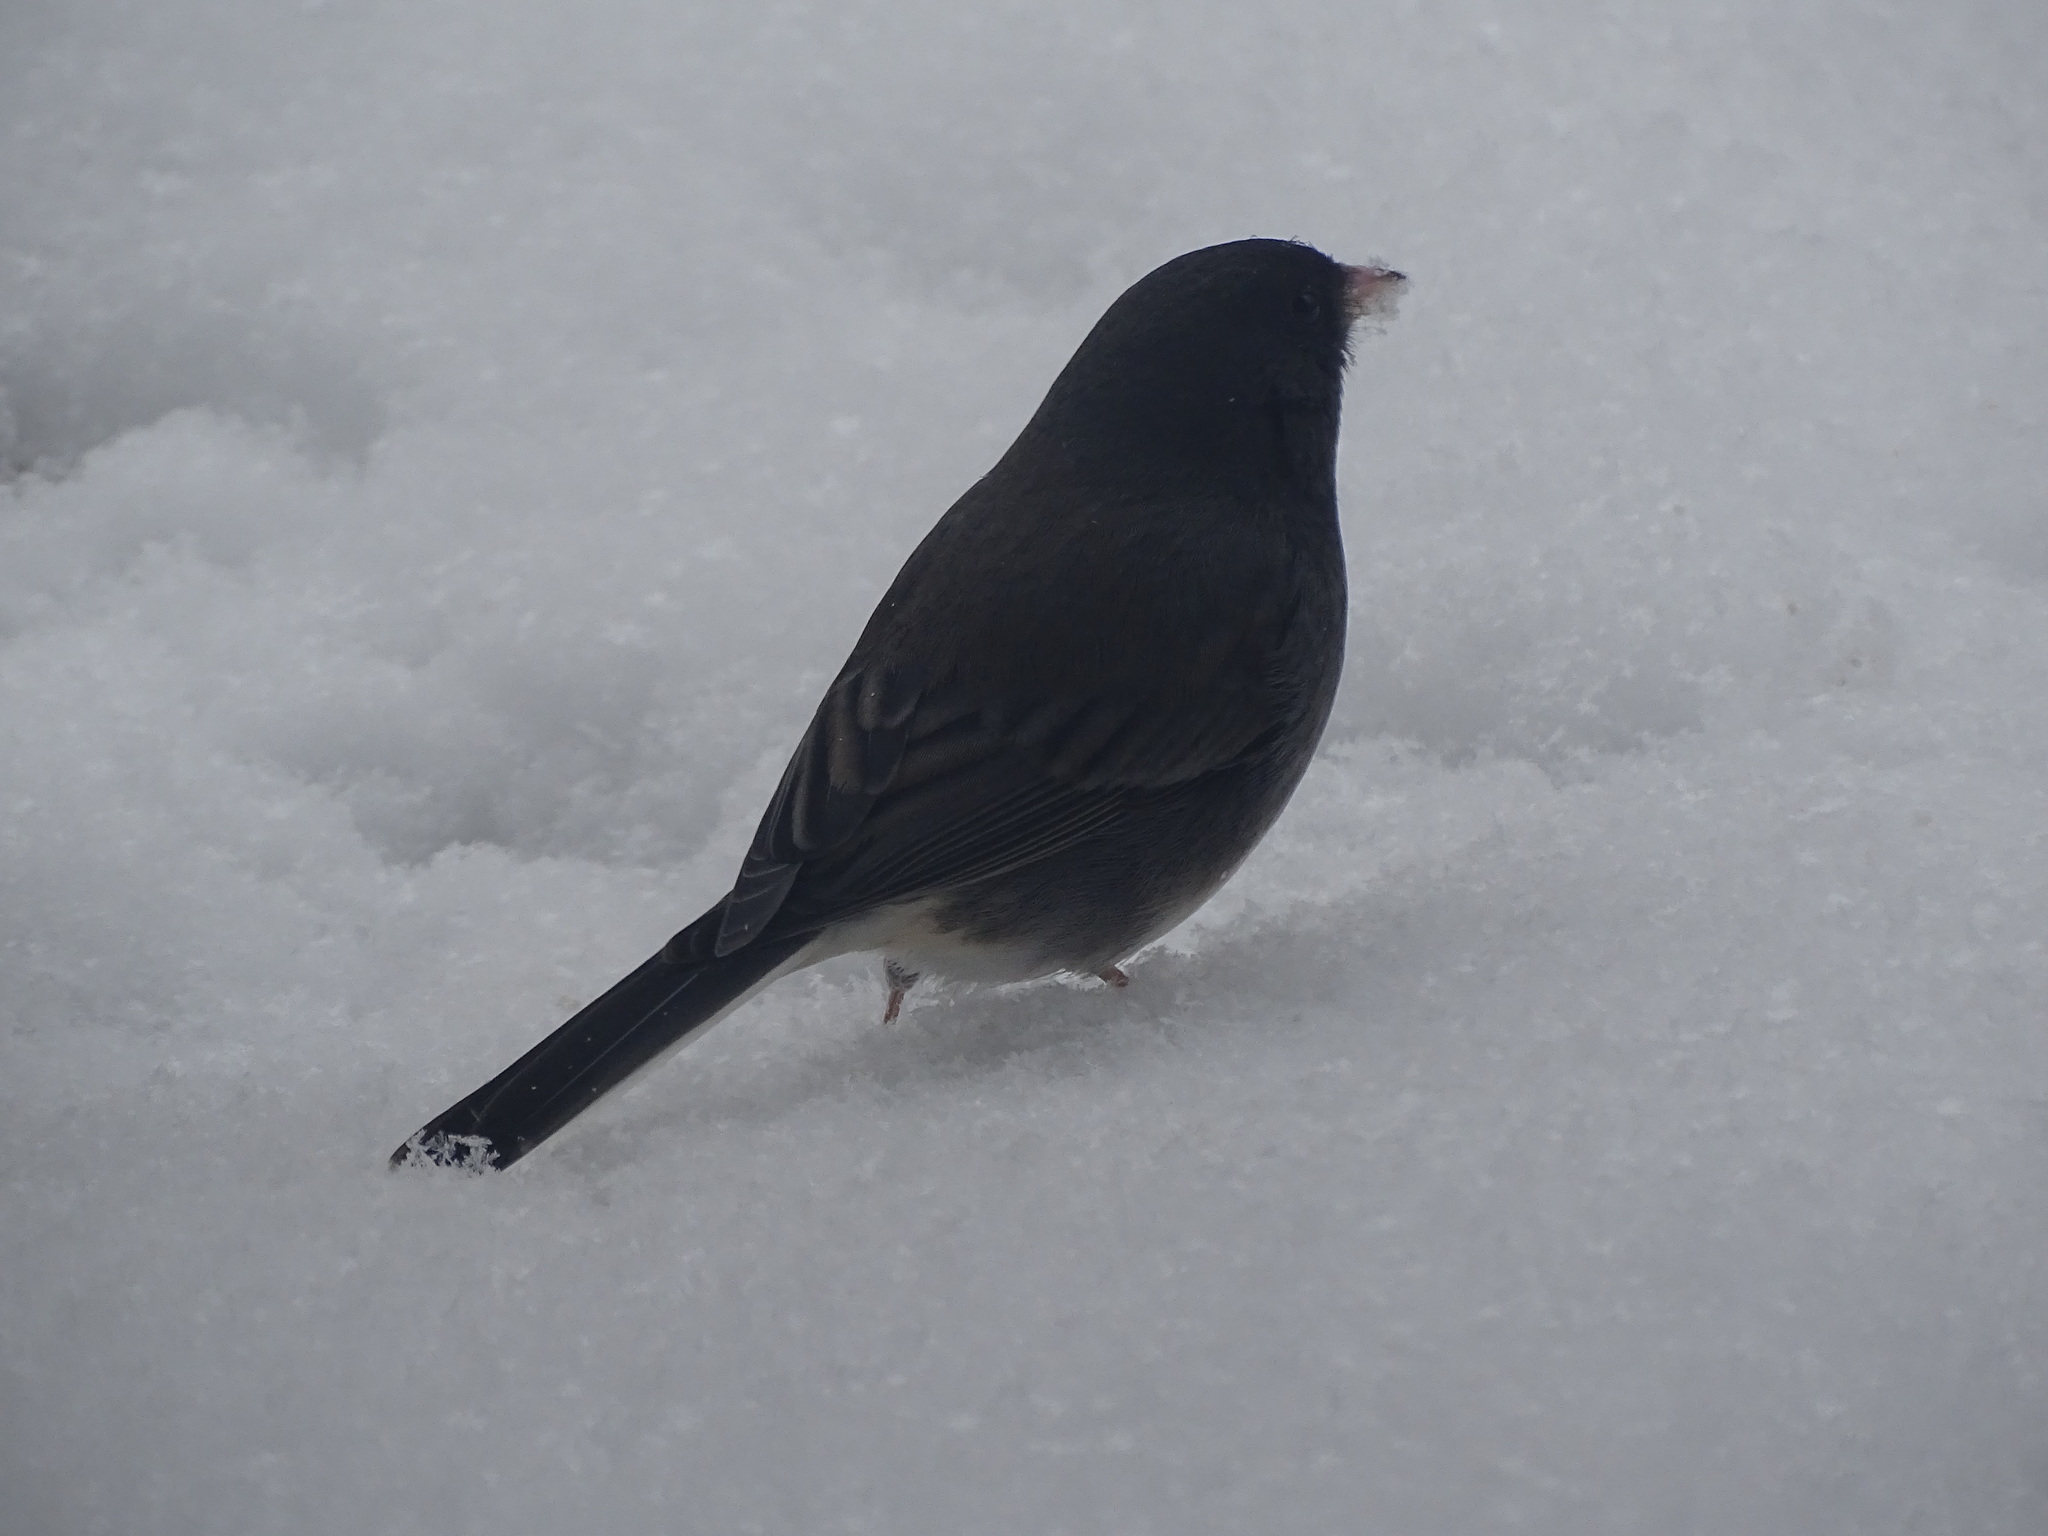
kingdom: Animalia
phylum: Chordata
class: Aves
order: Passeriformes
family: Passerellidae
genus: Junco
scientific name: Junco hyemalis
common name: Dark-eyed junco
